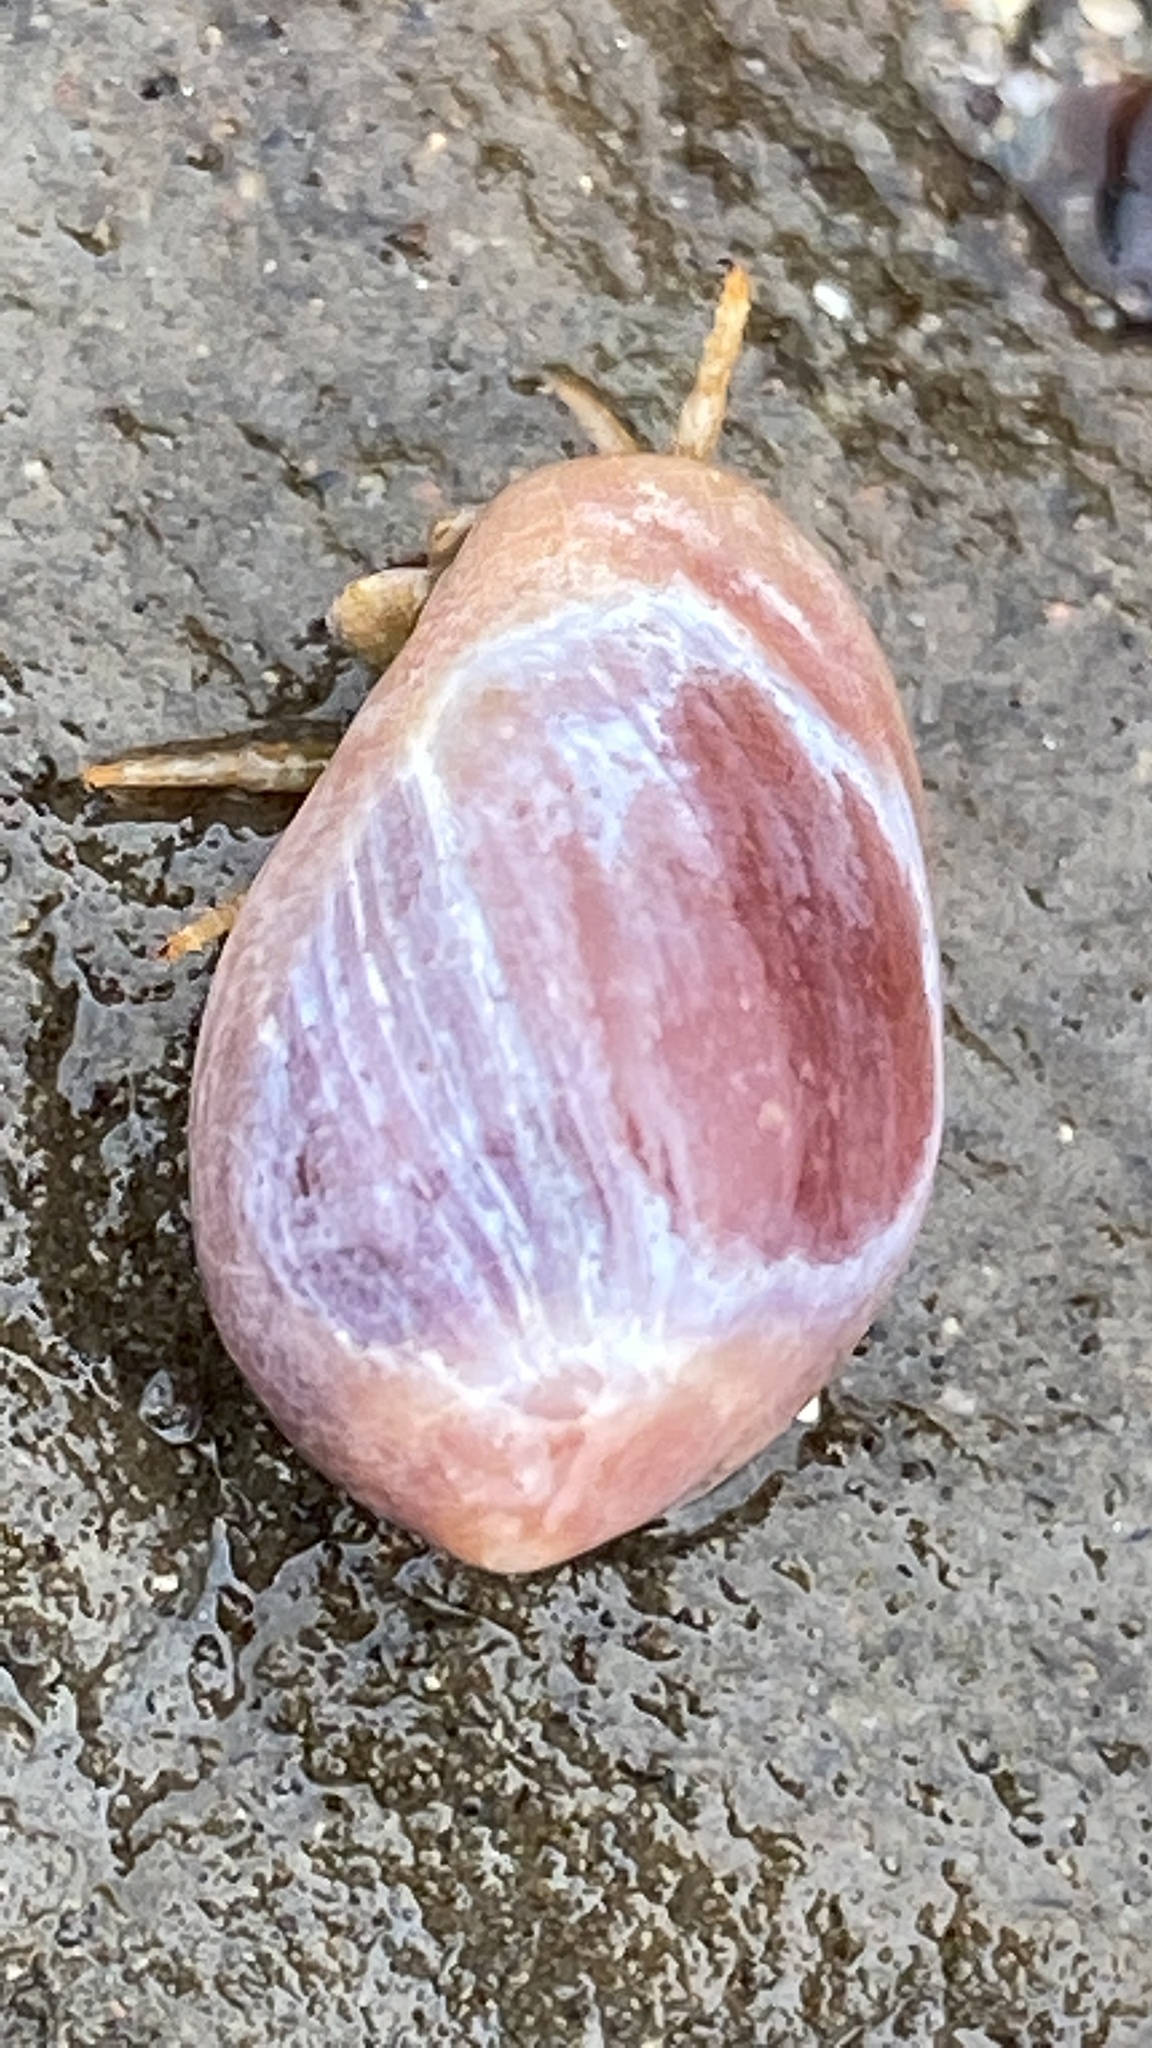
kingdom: Animalia
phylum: Arthropoda
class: Malacostraca
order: Decapoda
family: Paguridae
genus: Pagurus
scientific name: Pagurus granosimanus
